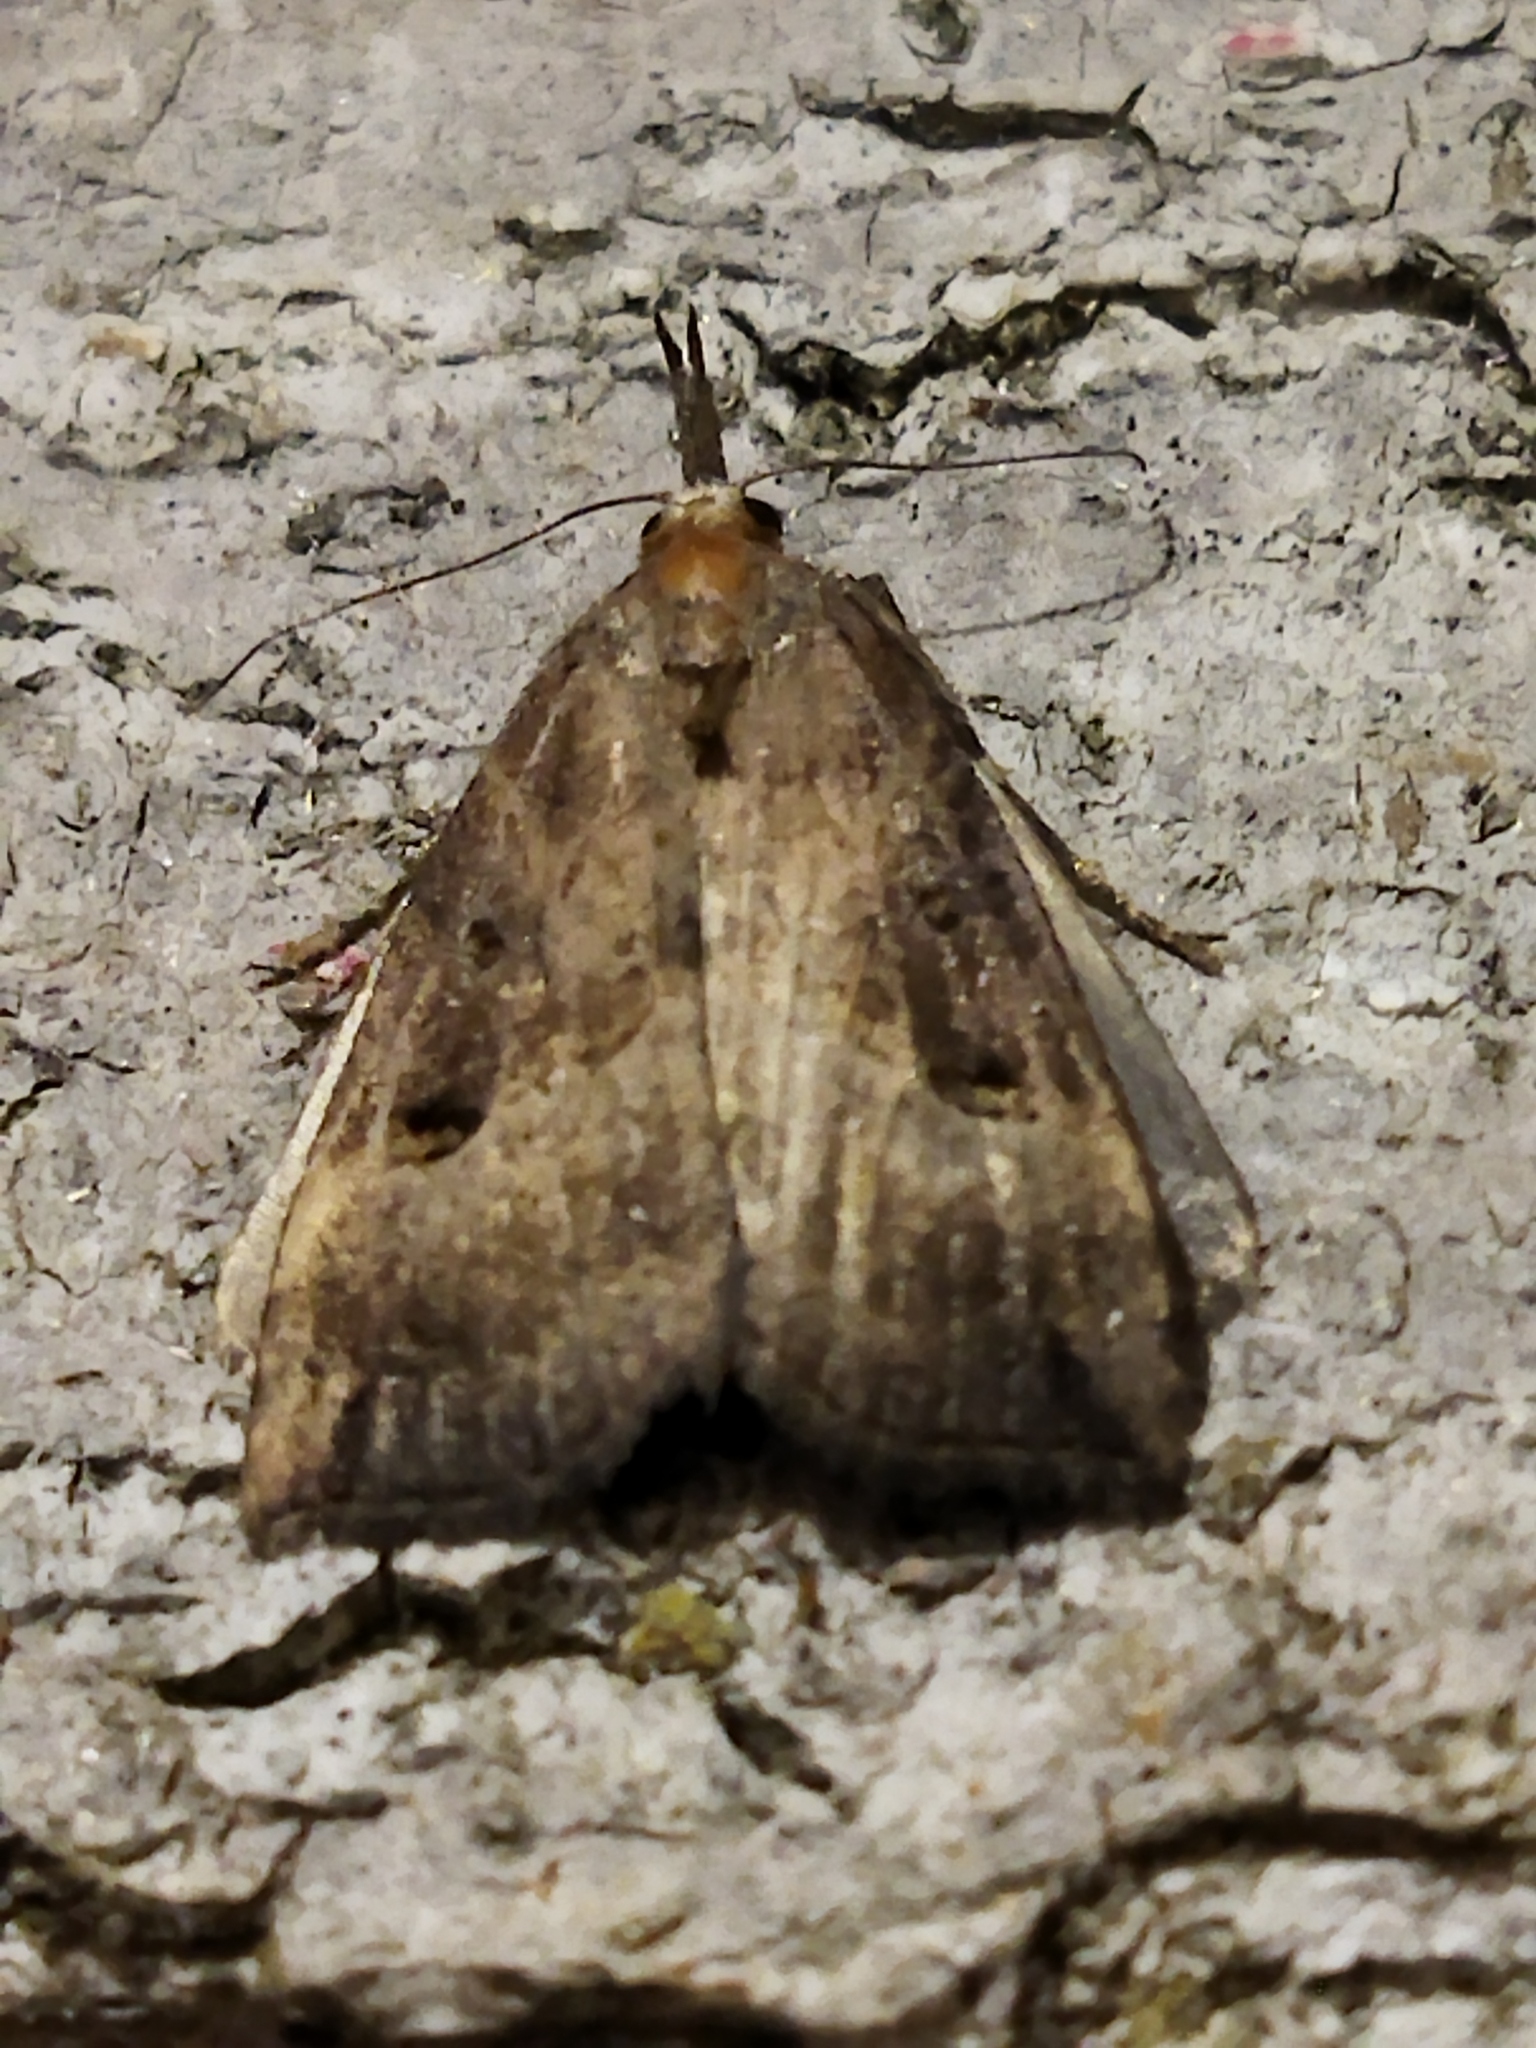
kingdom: Animalia
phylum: Arthropoda
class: Insecta
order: Lepidoptera
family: Erebidae
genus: Hypena
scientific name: Hypena rostralis
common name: Buttoned snout
